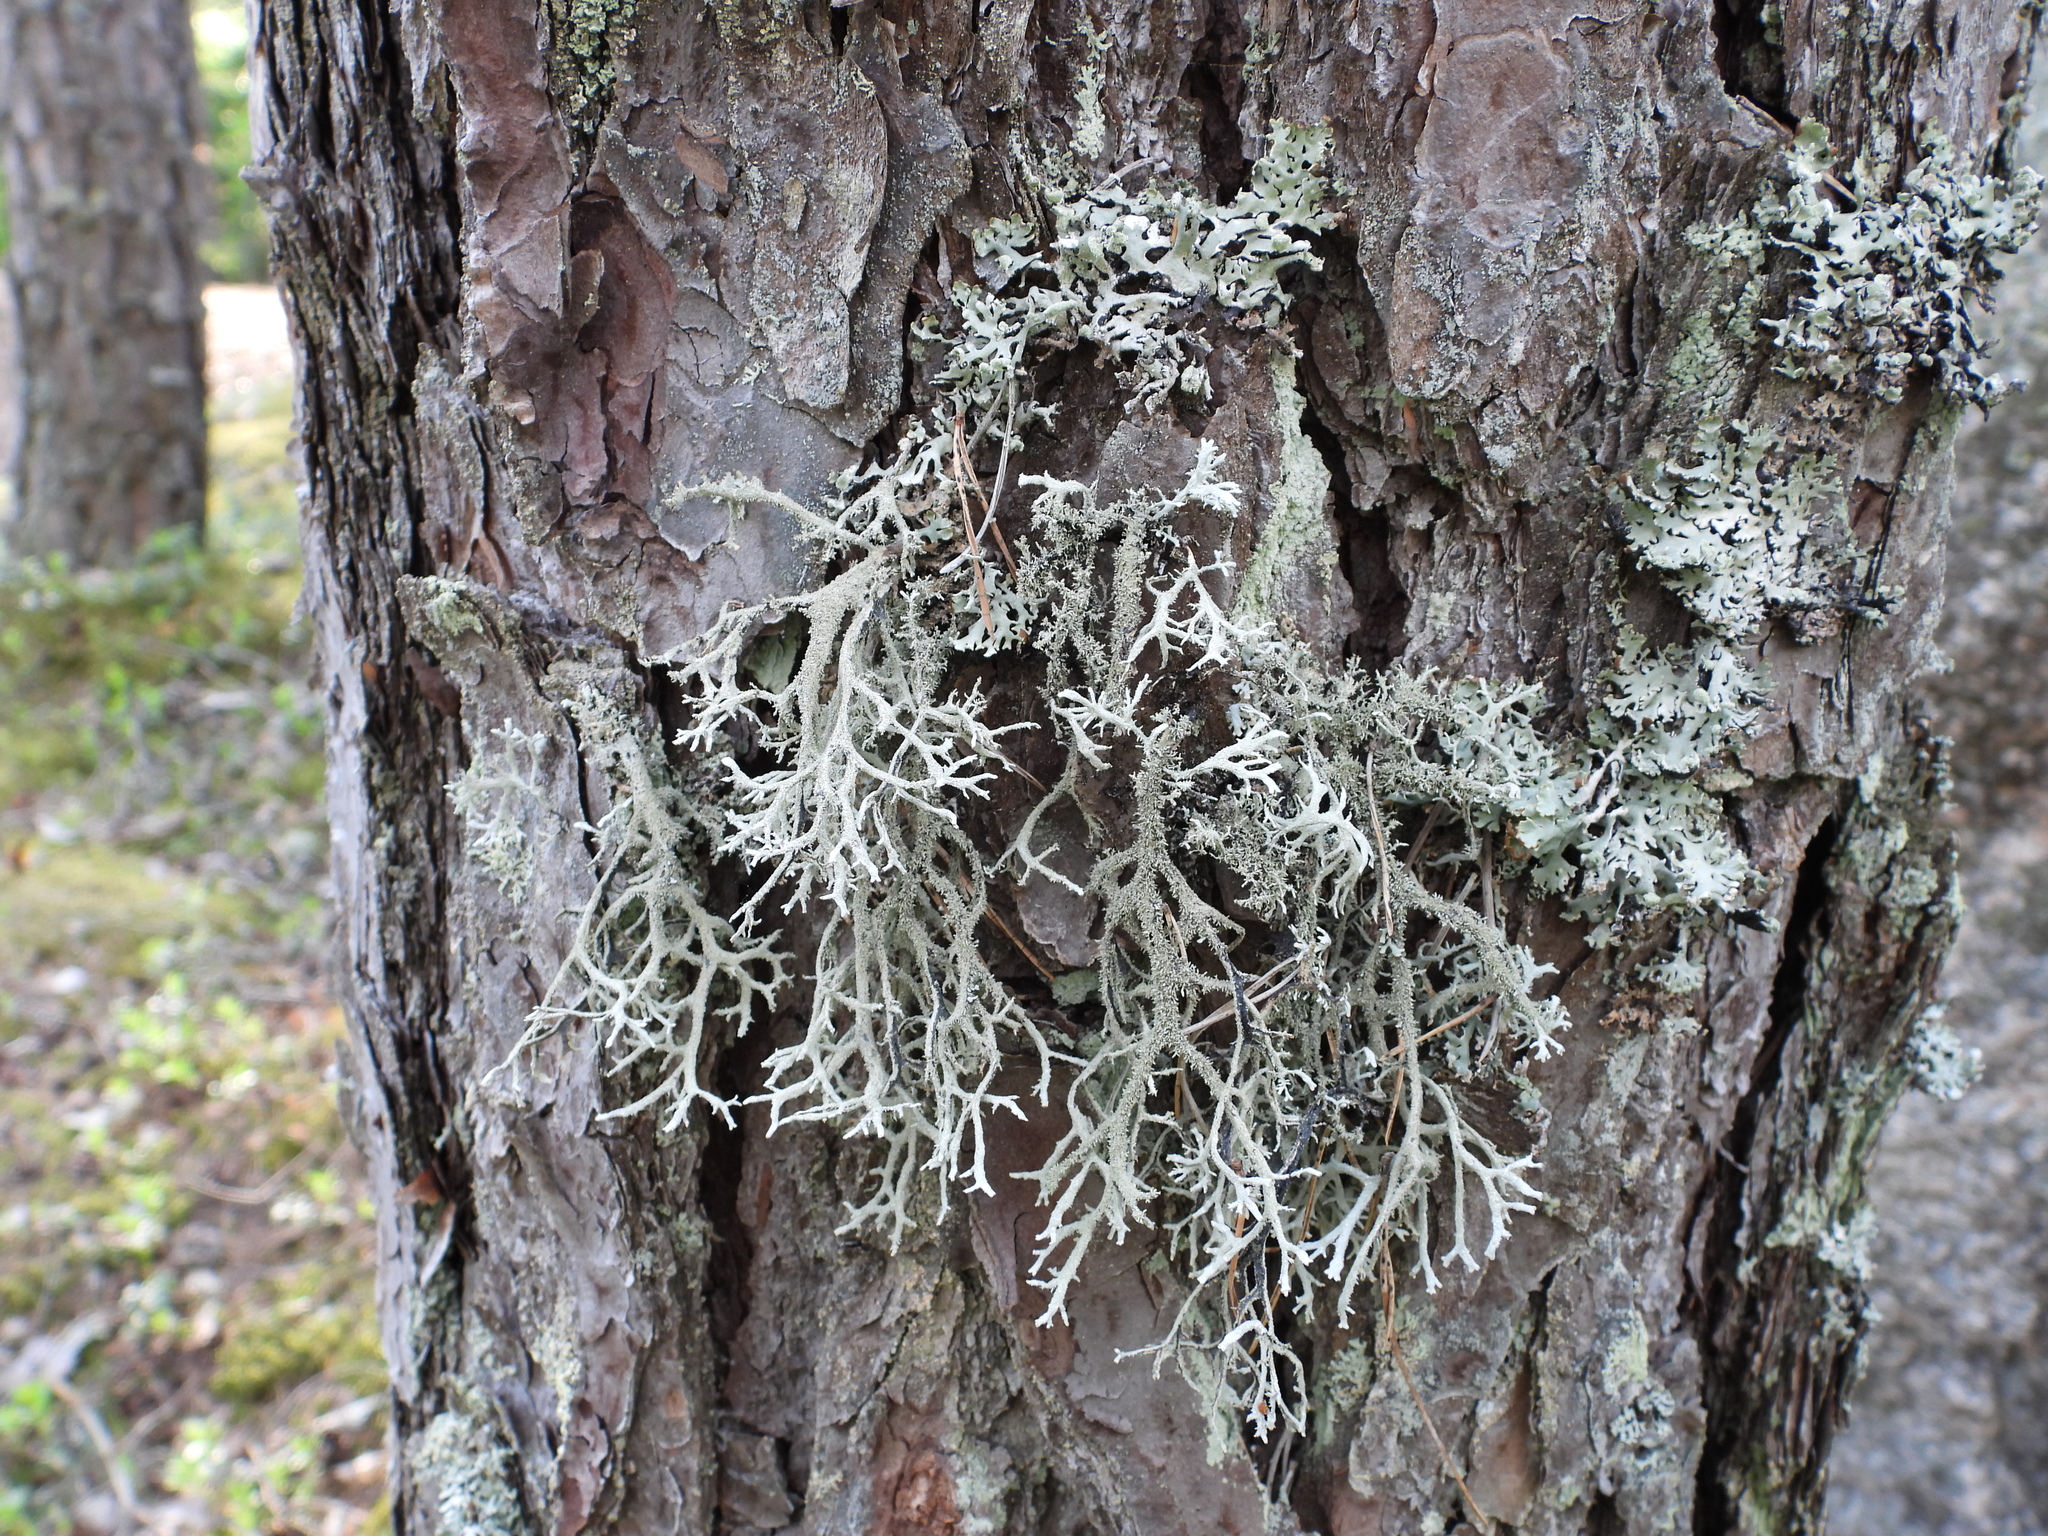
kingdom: Fungi
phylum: Ascomycota
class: Lecanoromycetes
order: Lecanorales
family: Parmeliaceae
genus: Pseudevernia
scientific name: Pseudevernia furfuracea
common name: Tree moss
